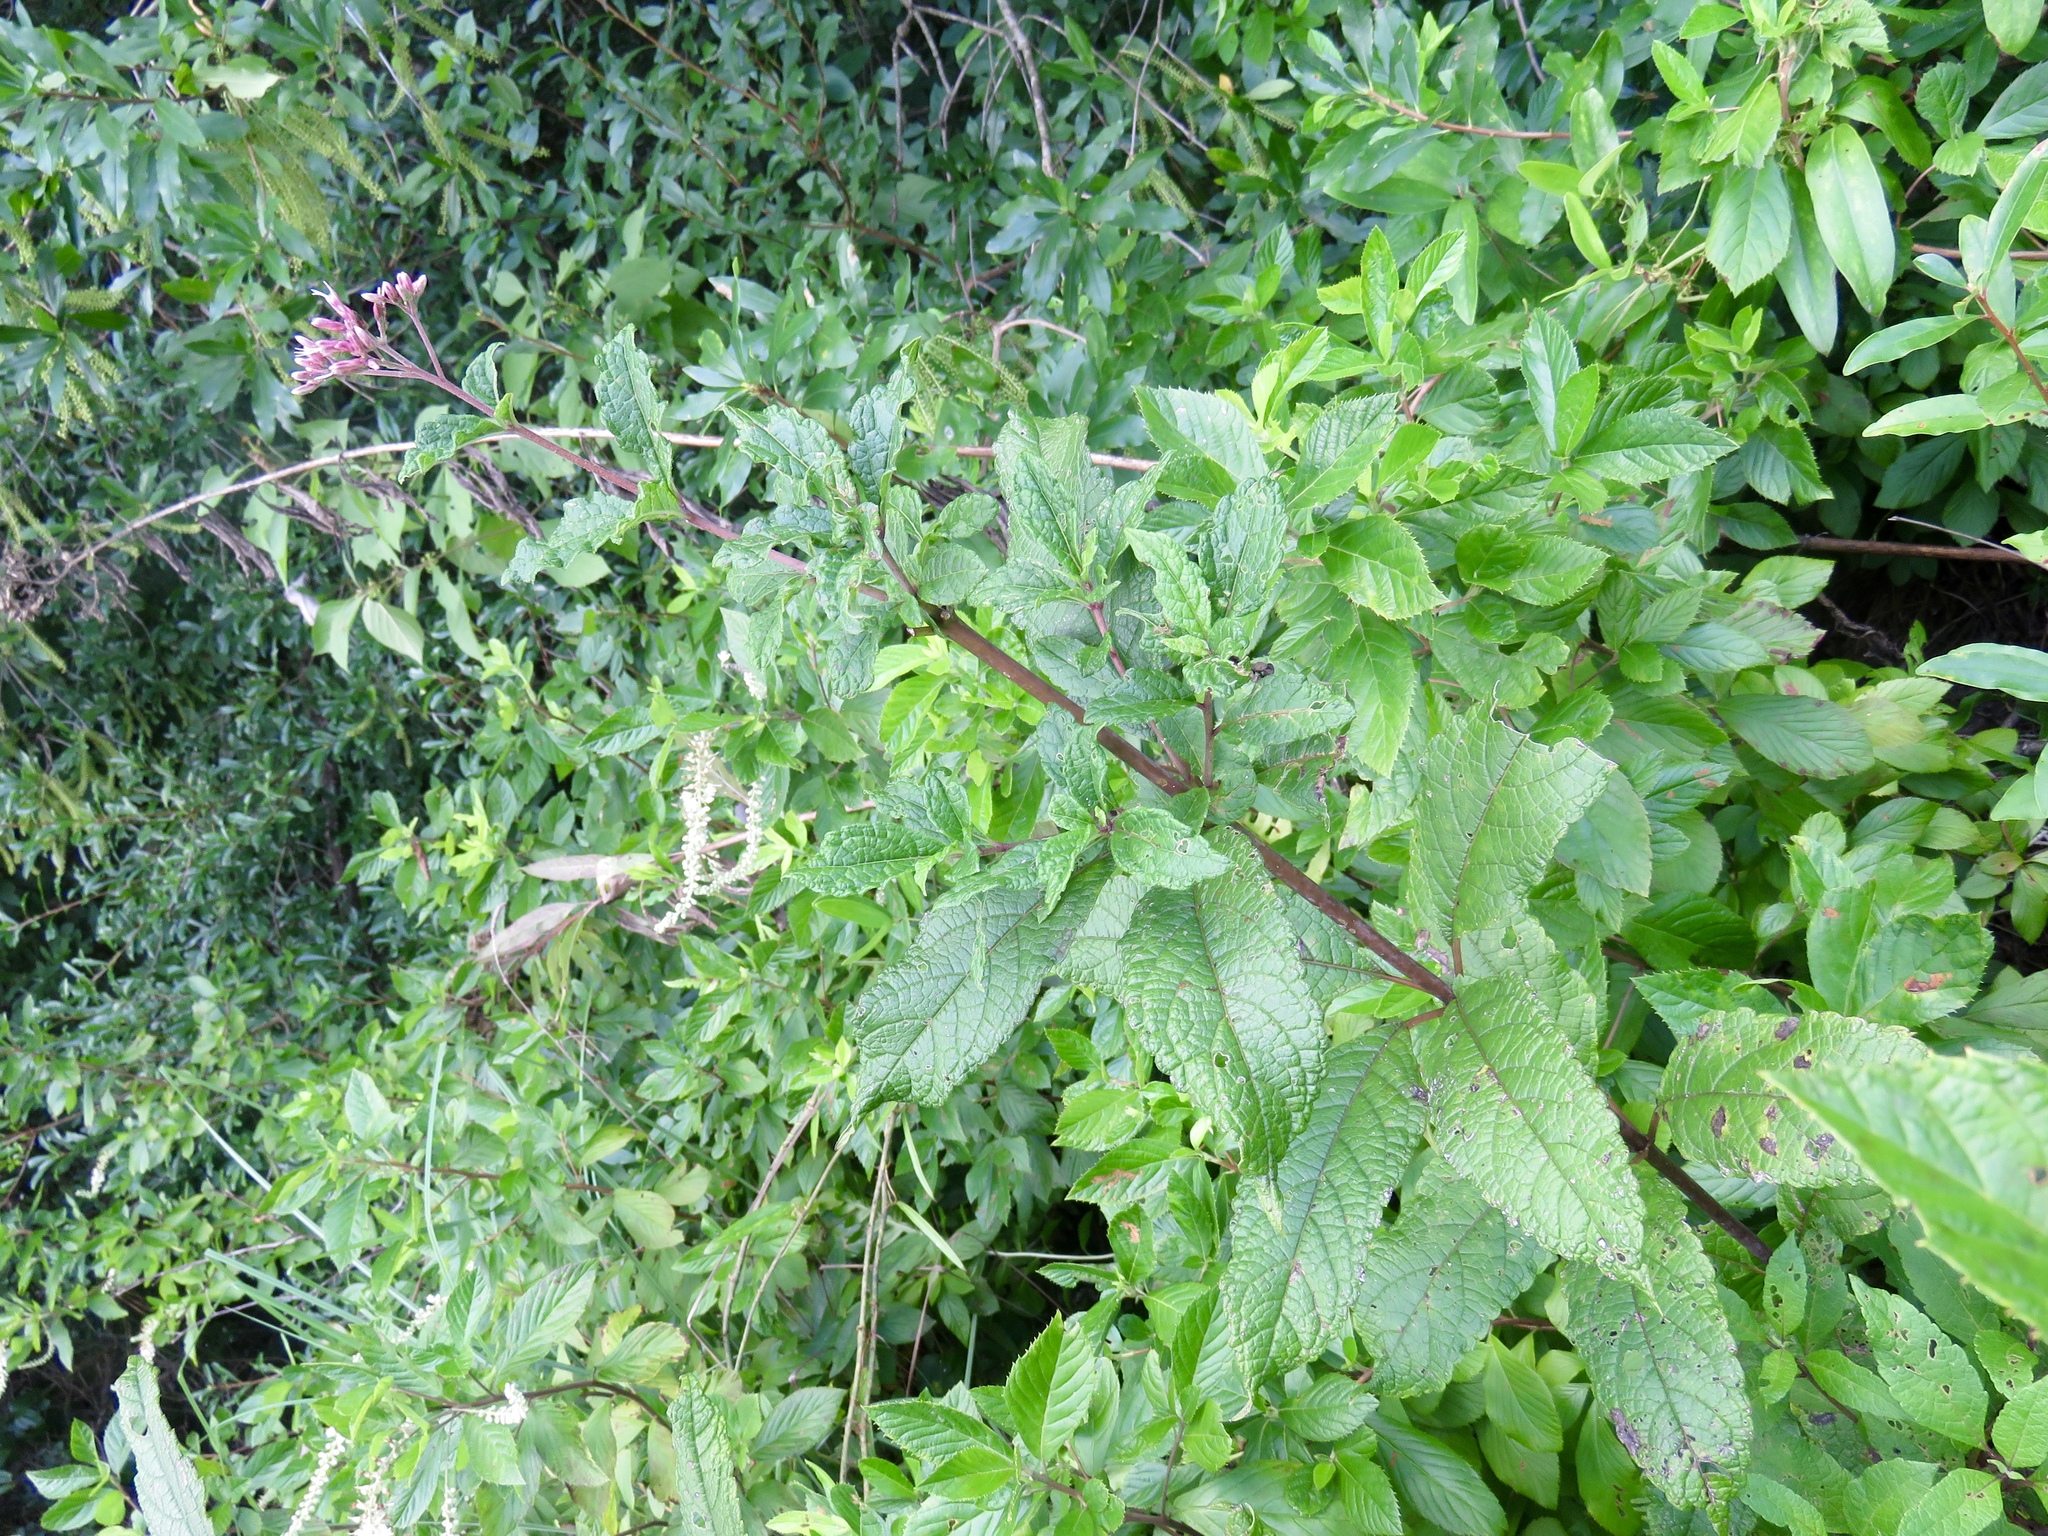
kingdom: Plantae
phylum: Tracheophyta
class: Magnoliopsida
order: Asterales
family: Asteraceae
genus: Eutrochium
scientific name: Eutrochium fistulosum
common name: Trumpetweed
